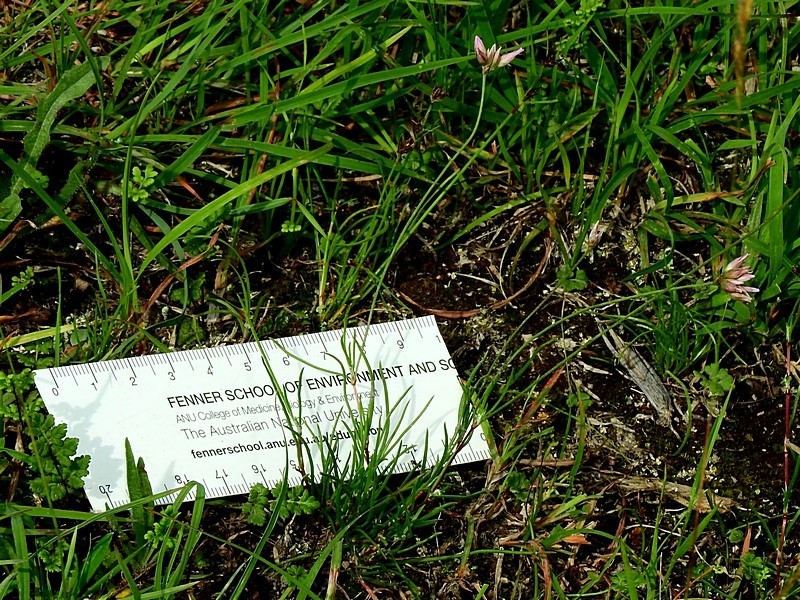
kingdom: Plantae
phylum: Tracheophyta
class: Liliopsida
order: Asparagales
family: Asparagaceae
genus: Laxmannia
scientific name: Laxmannia gracilis
